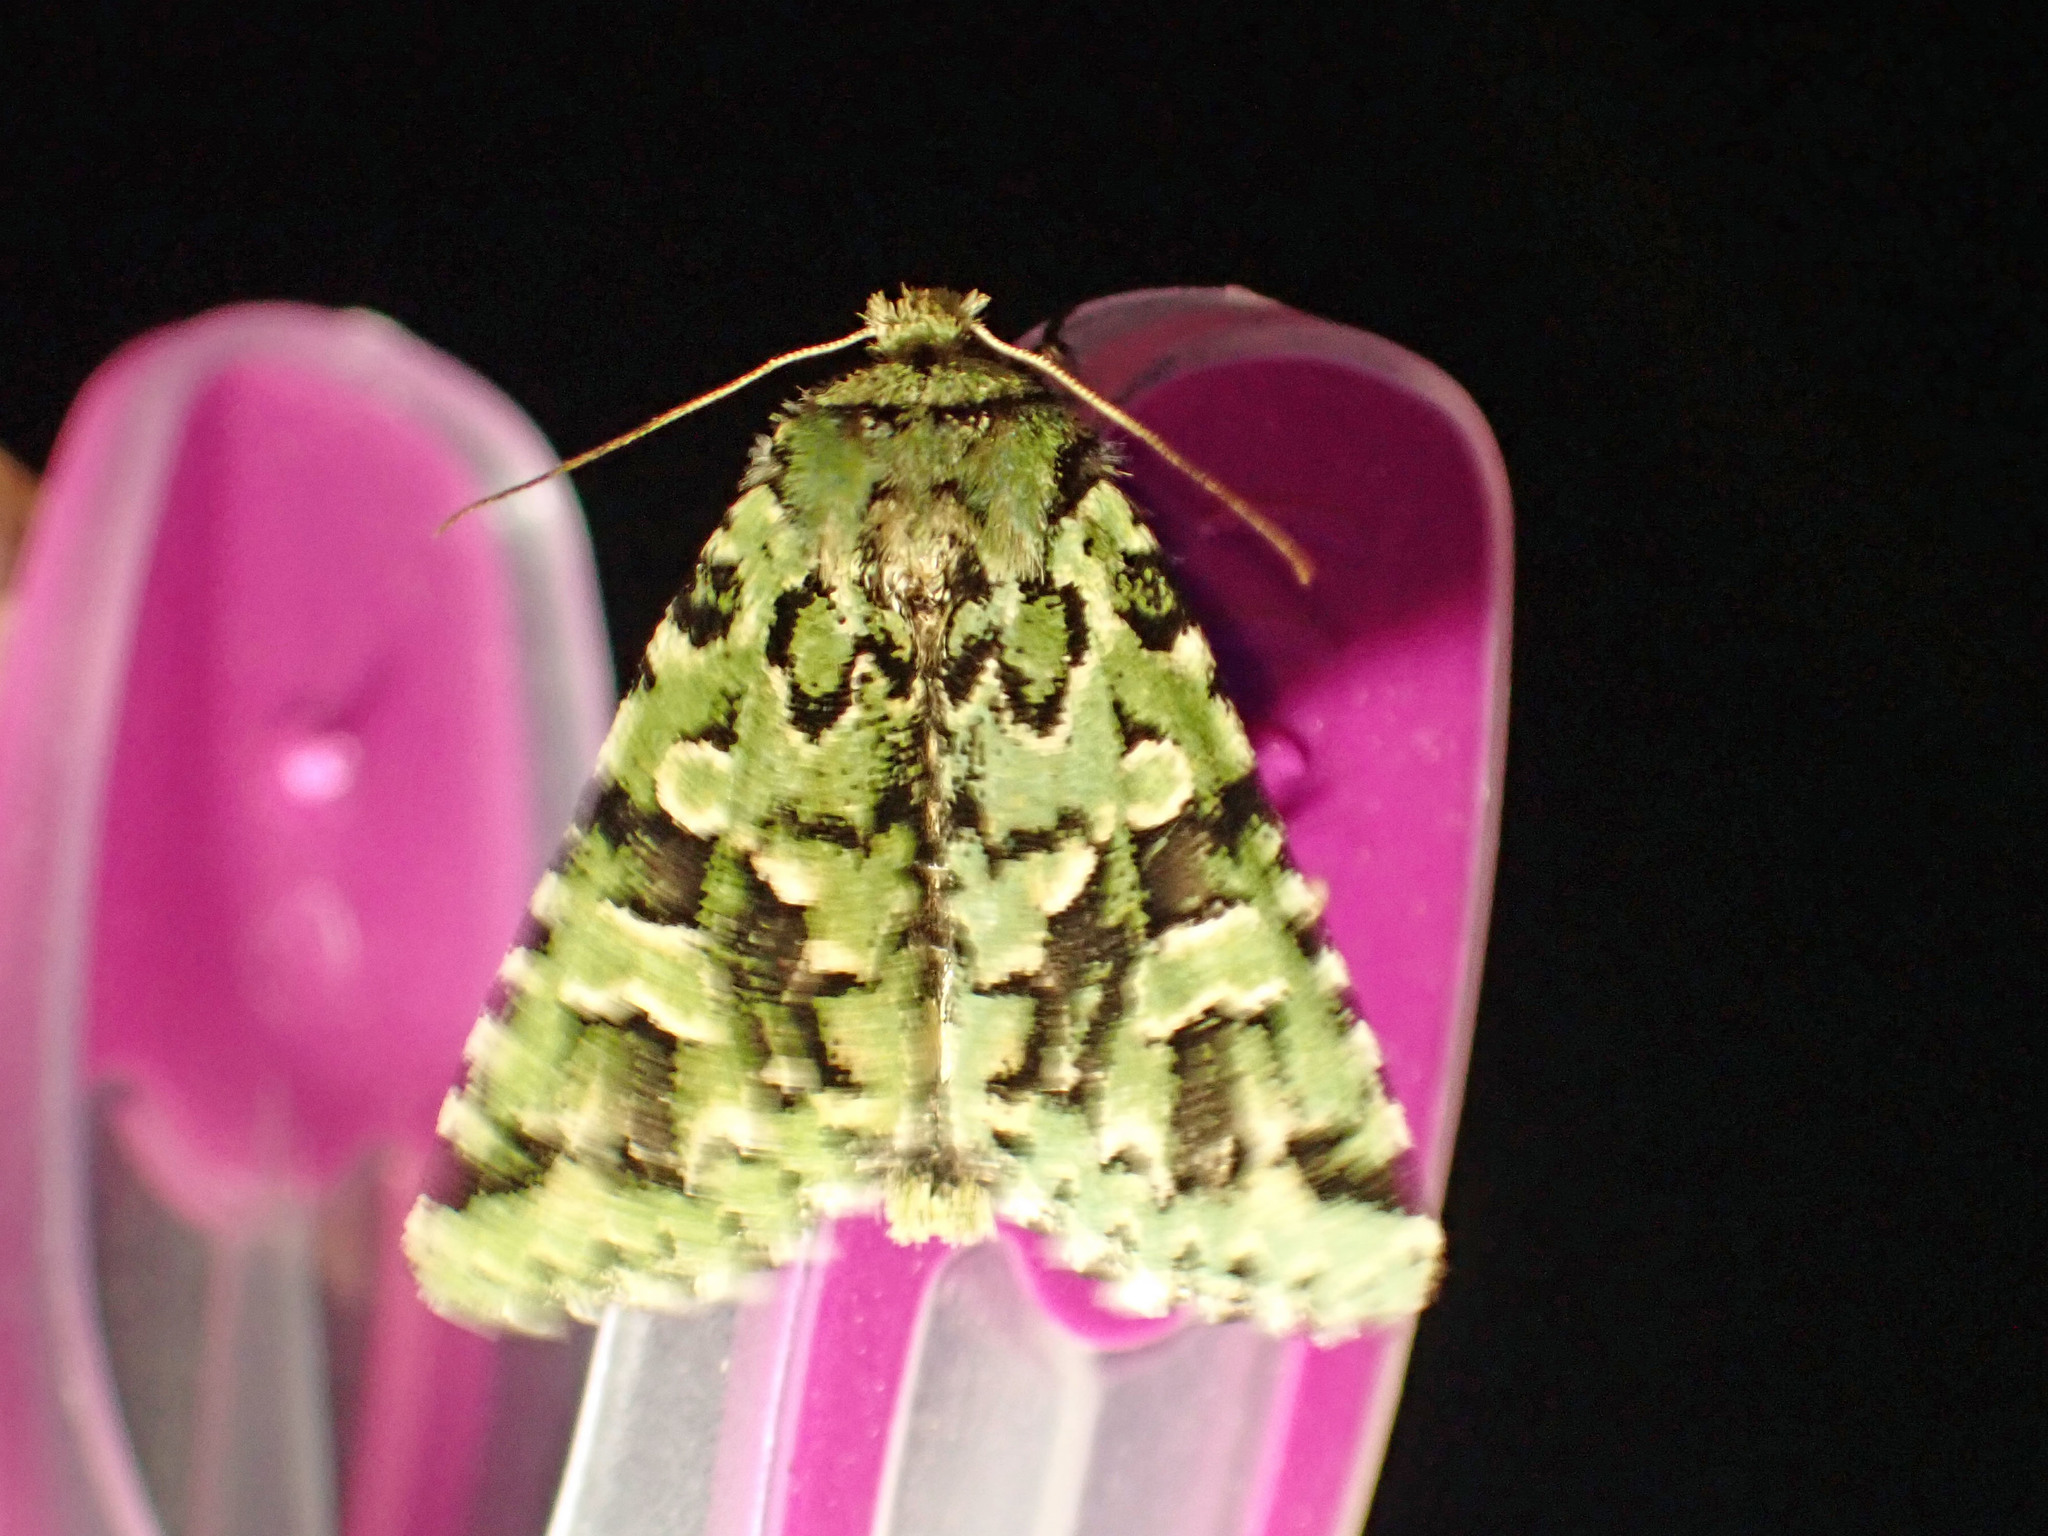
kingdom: Animalia
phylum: Arthropoda
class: Insecta
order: Lepidoptera
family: Noctuidae
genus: Feralia
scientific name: Feralia comstocki
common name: Comstock's sallow
